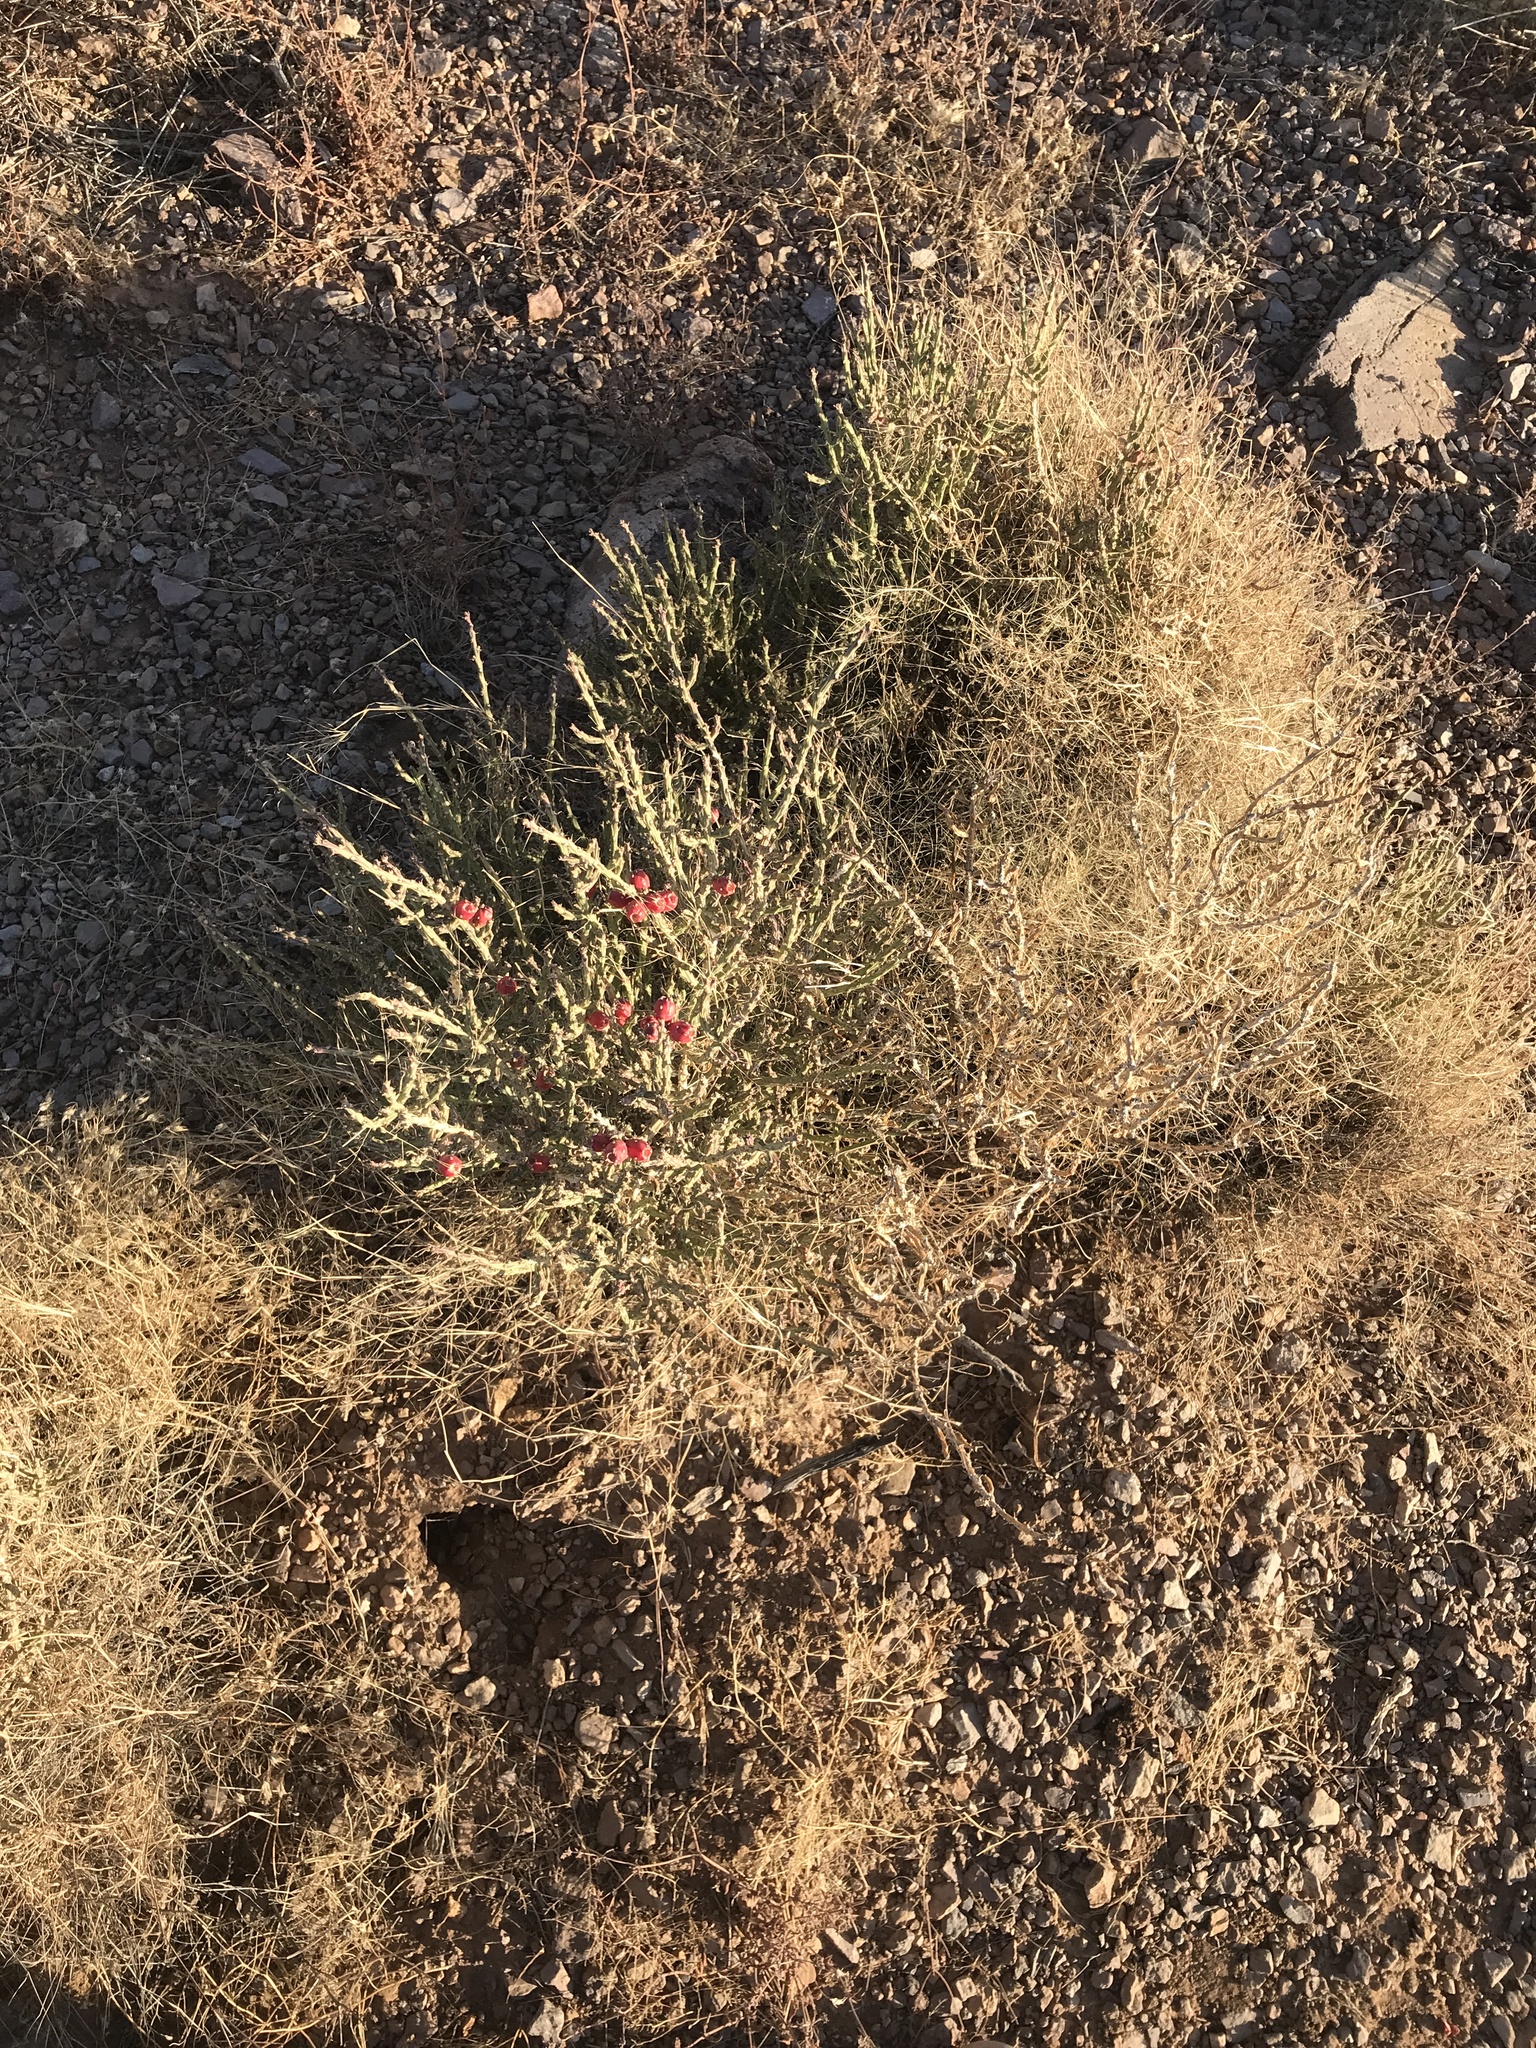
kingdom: Plantae
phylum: Tracheophyta
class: Magnoliopsida
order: Caryophyllales
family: Cactaceae
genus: Cylindropuntia
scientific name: Cylindropuntia leptocaulis
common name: Christmas cactus
